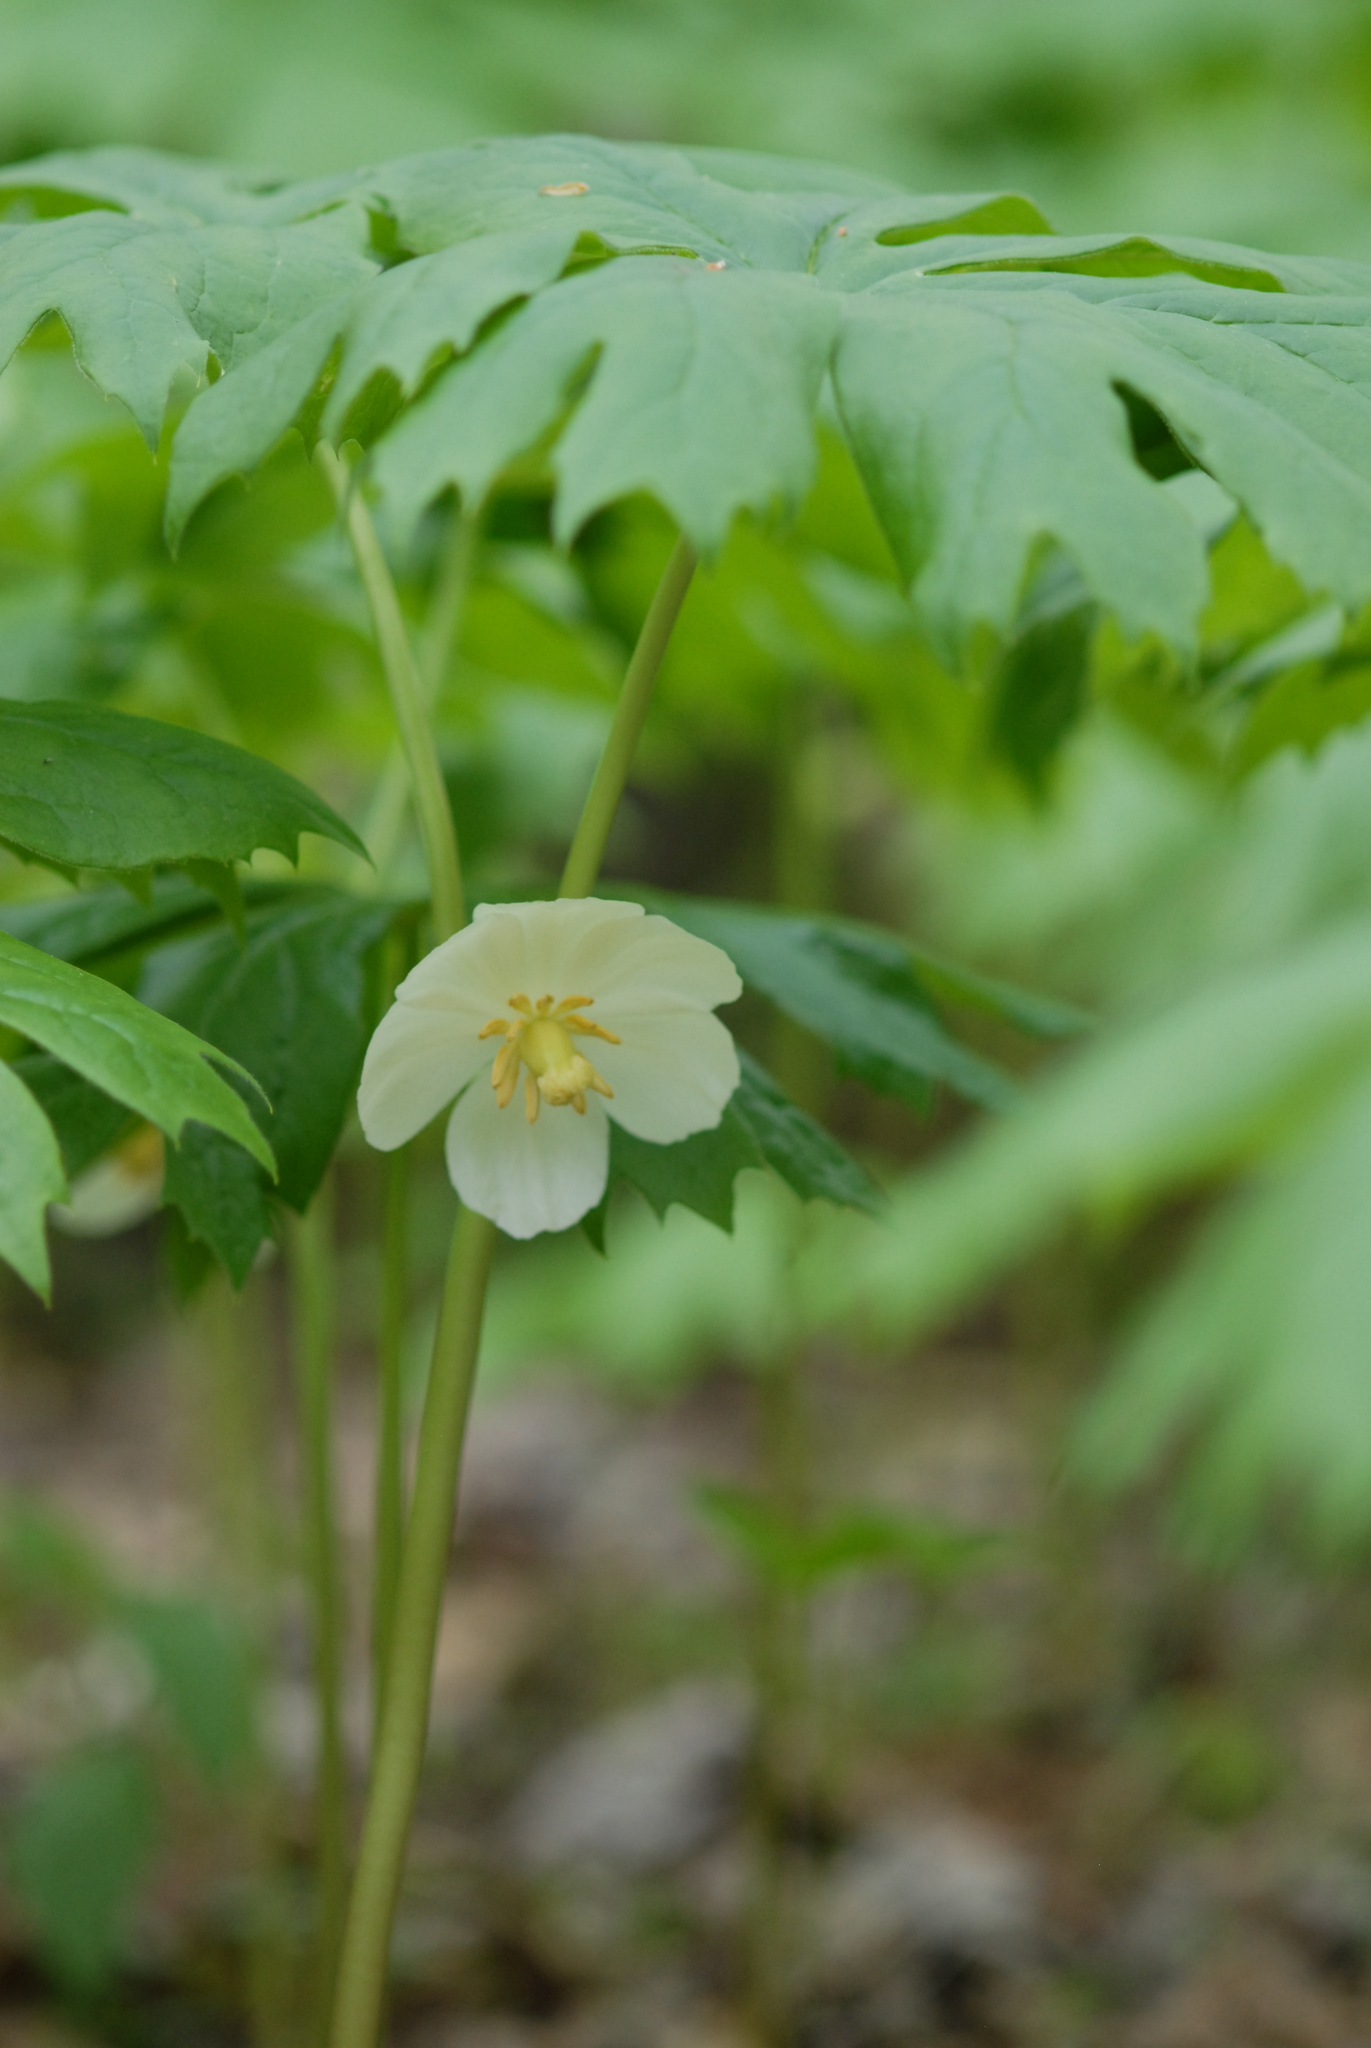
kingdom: Plantae
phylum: Tracheophyta
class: Magnoliopsida
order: Ranunculales
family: Berberidaceae
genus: Podophyllum
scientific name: Podophyllum peltatum
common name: Wild mandrake
